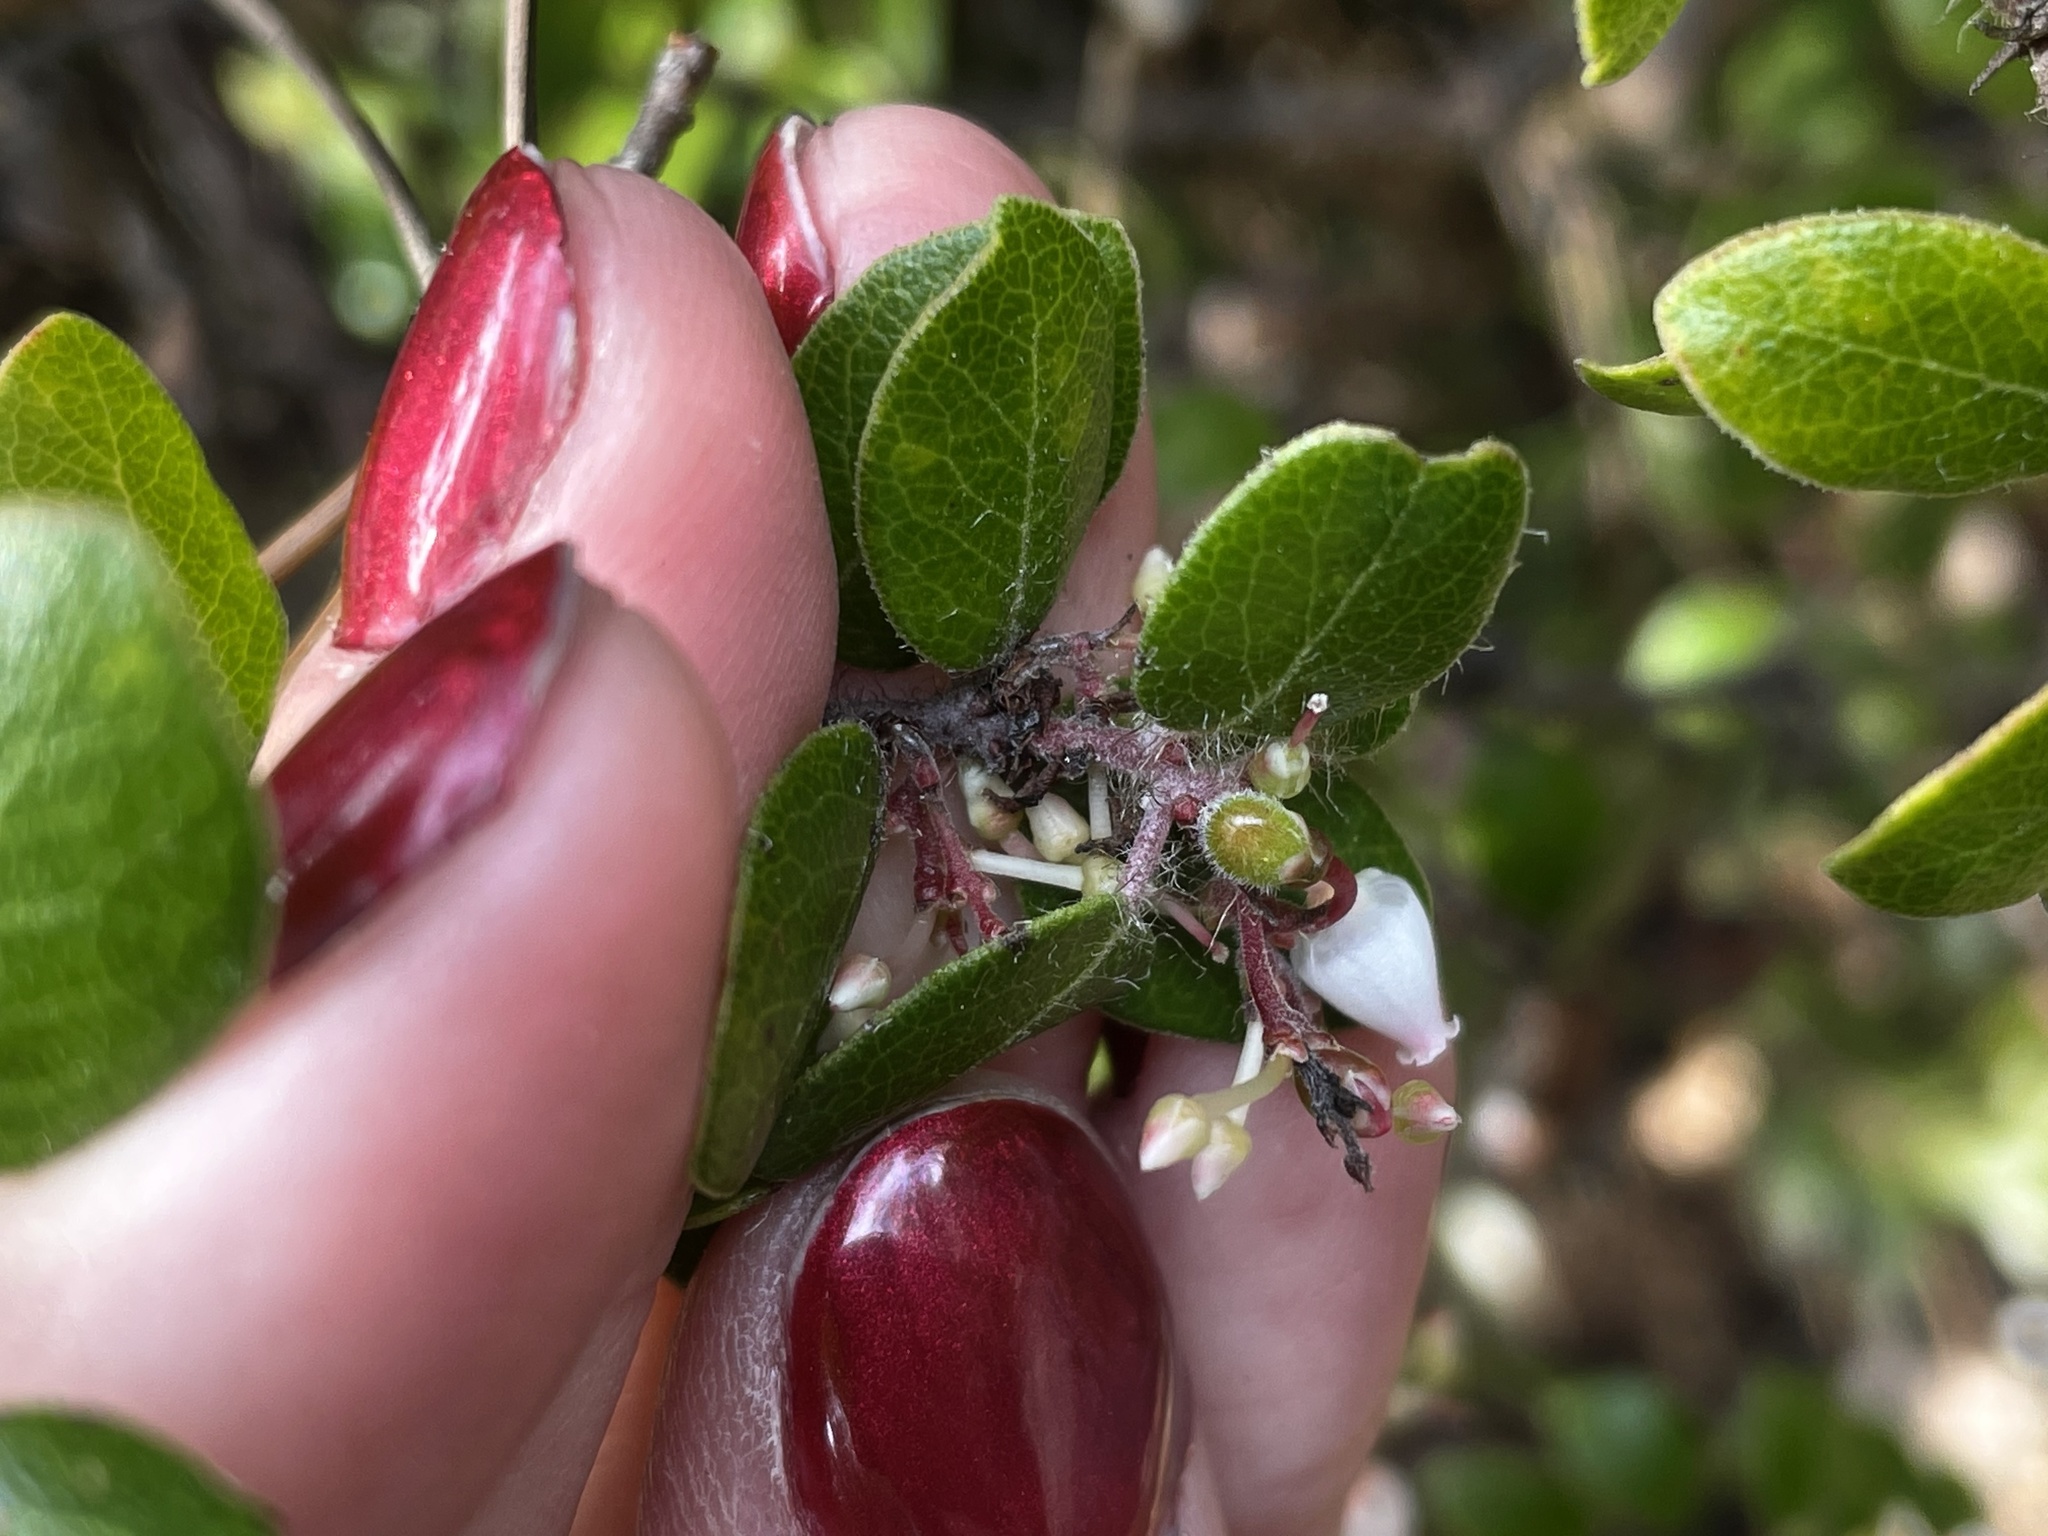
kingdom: Plantae
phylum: Tracheophyta
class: Magnoliopsida
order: Ericales
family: Ericaceae
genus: Arctostaphylos
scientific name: Arctostaphylos nummularia
